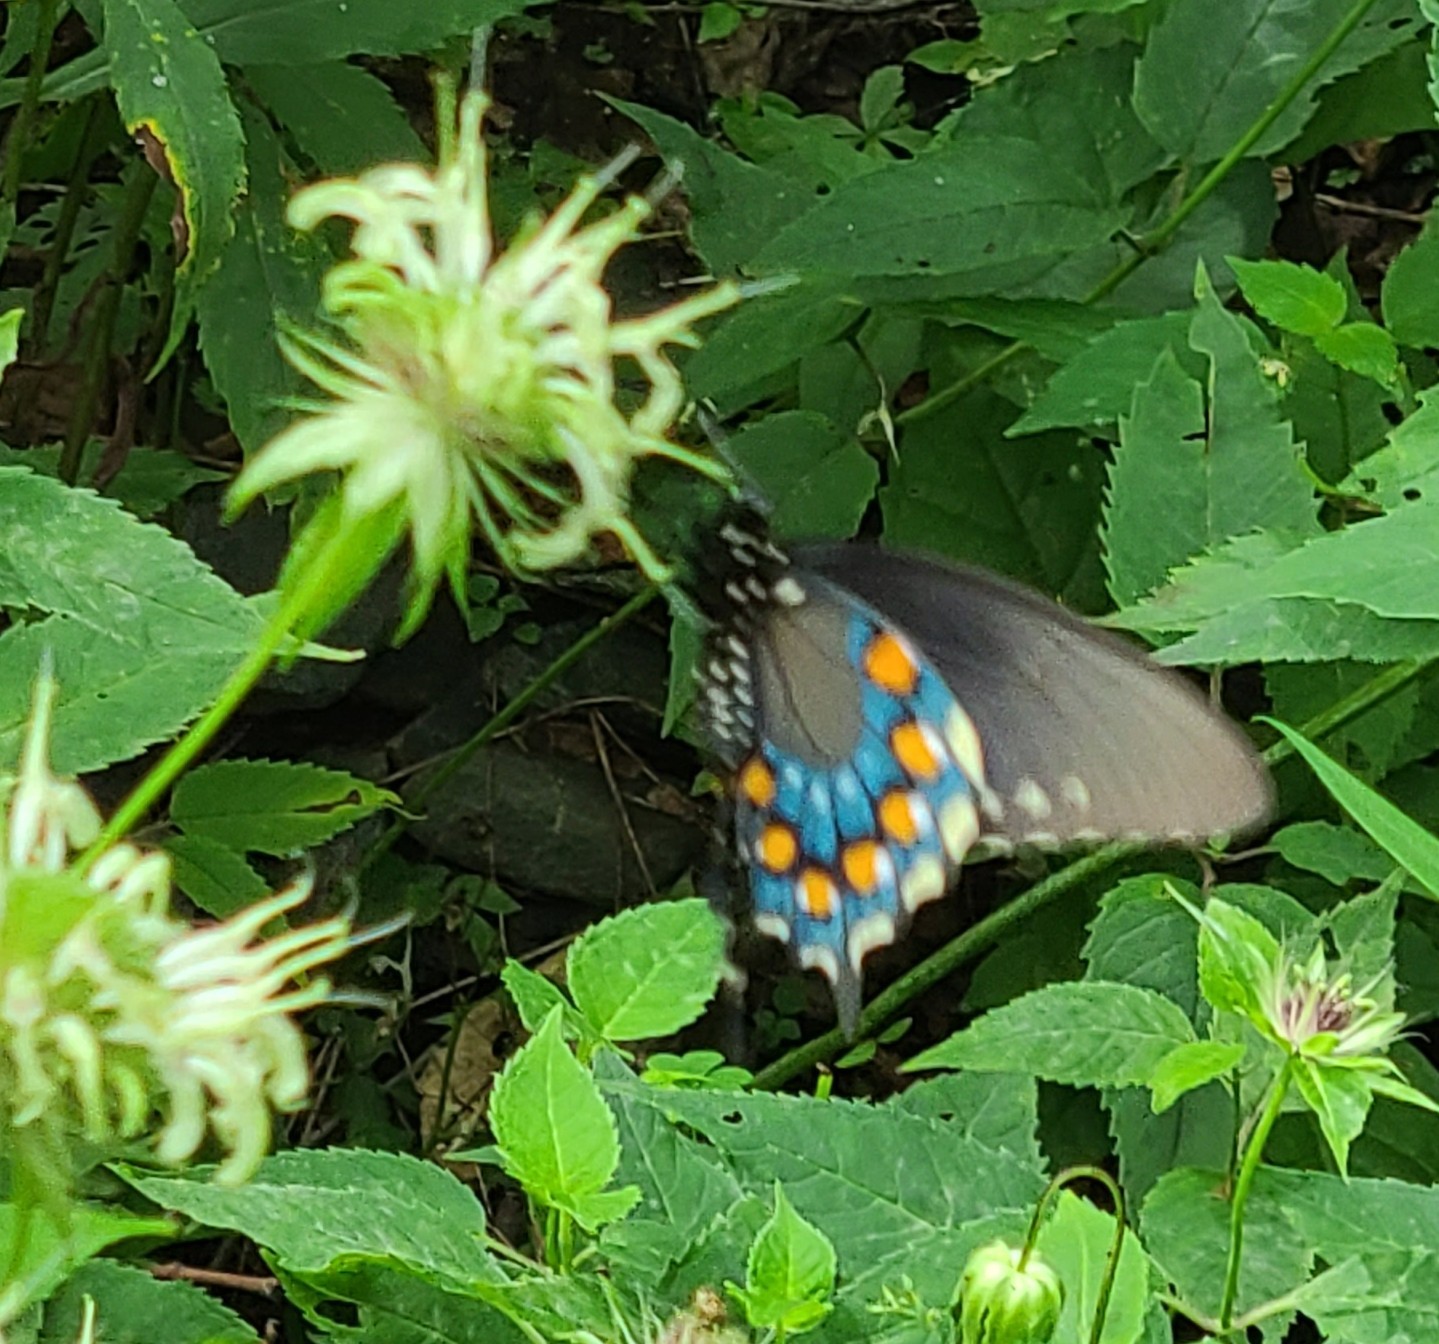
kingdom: Animalia
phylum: Arthropoda
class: Insecta
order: Lepidoptera
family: Papilionidae
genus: Battus
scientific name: Battus philenor
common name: Pipevine swallowtail
